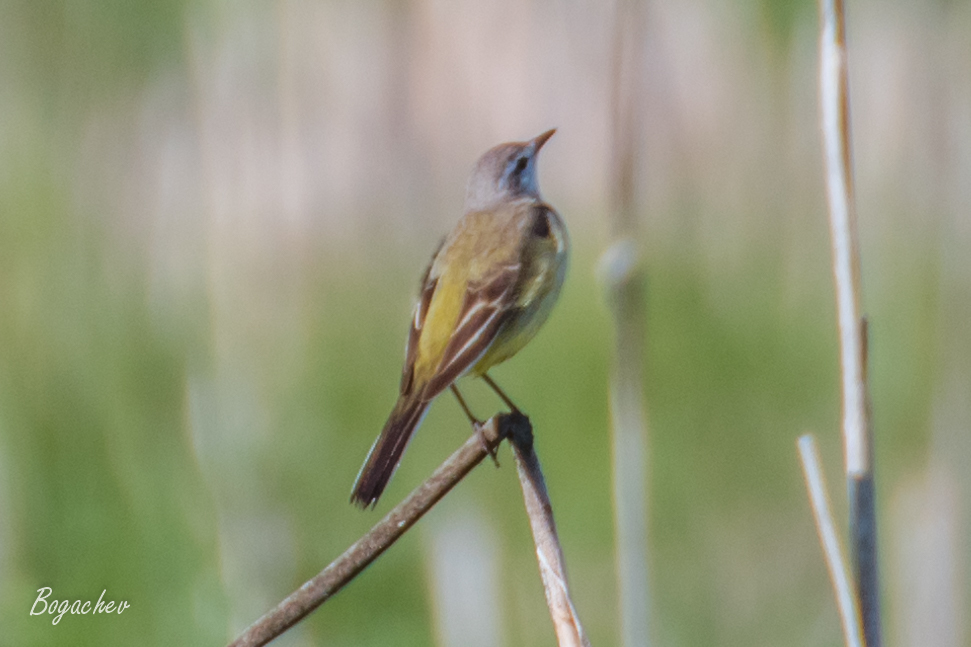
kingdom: Animalia
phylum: Chordata
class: Aves
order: Passeriformes
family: Motacillidae
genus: Motacilla
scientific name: Motacilla flava
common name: Western yellow wagtail
